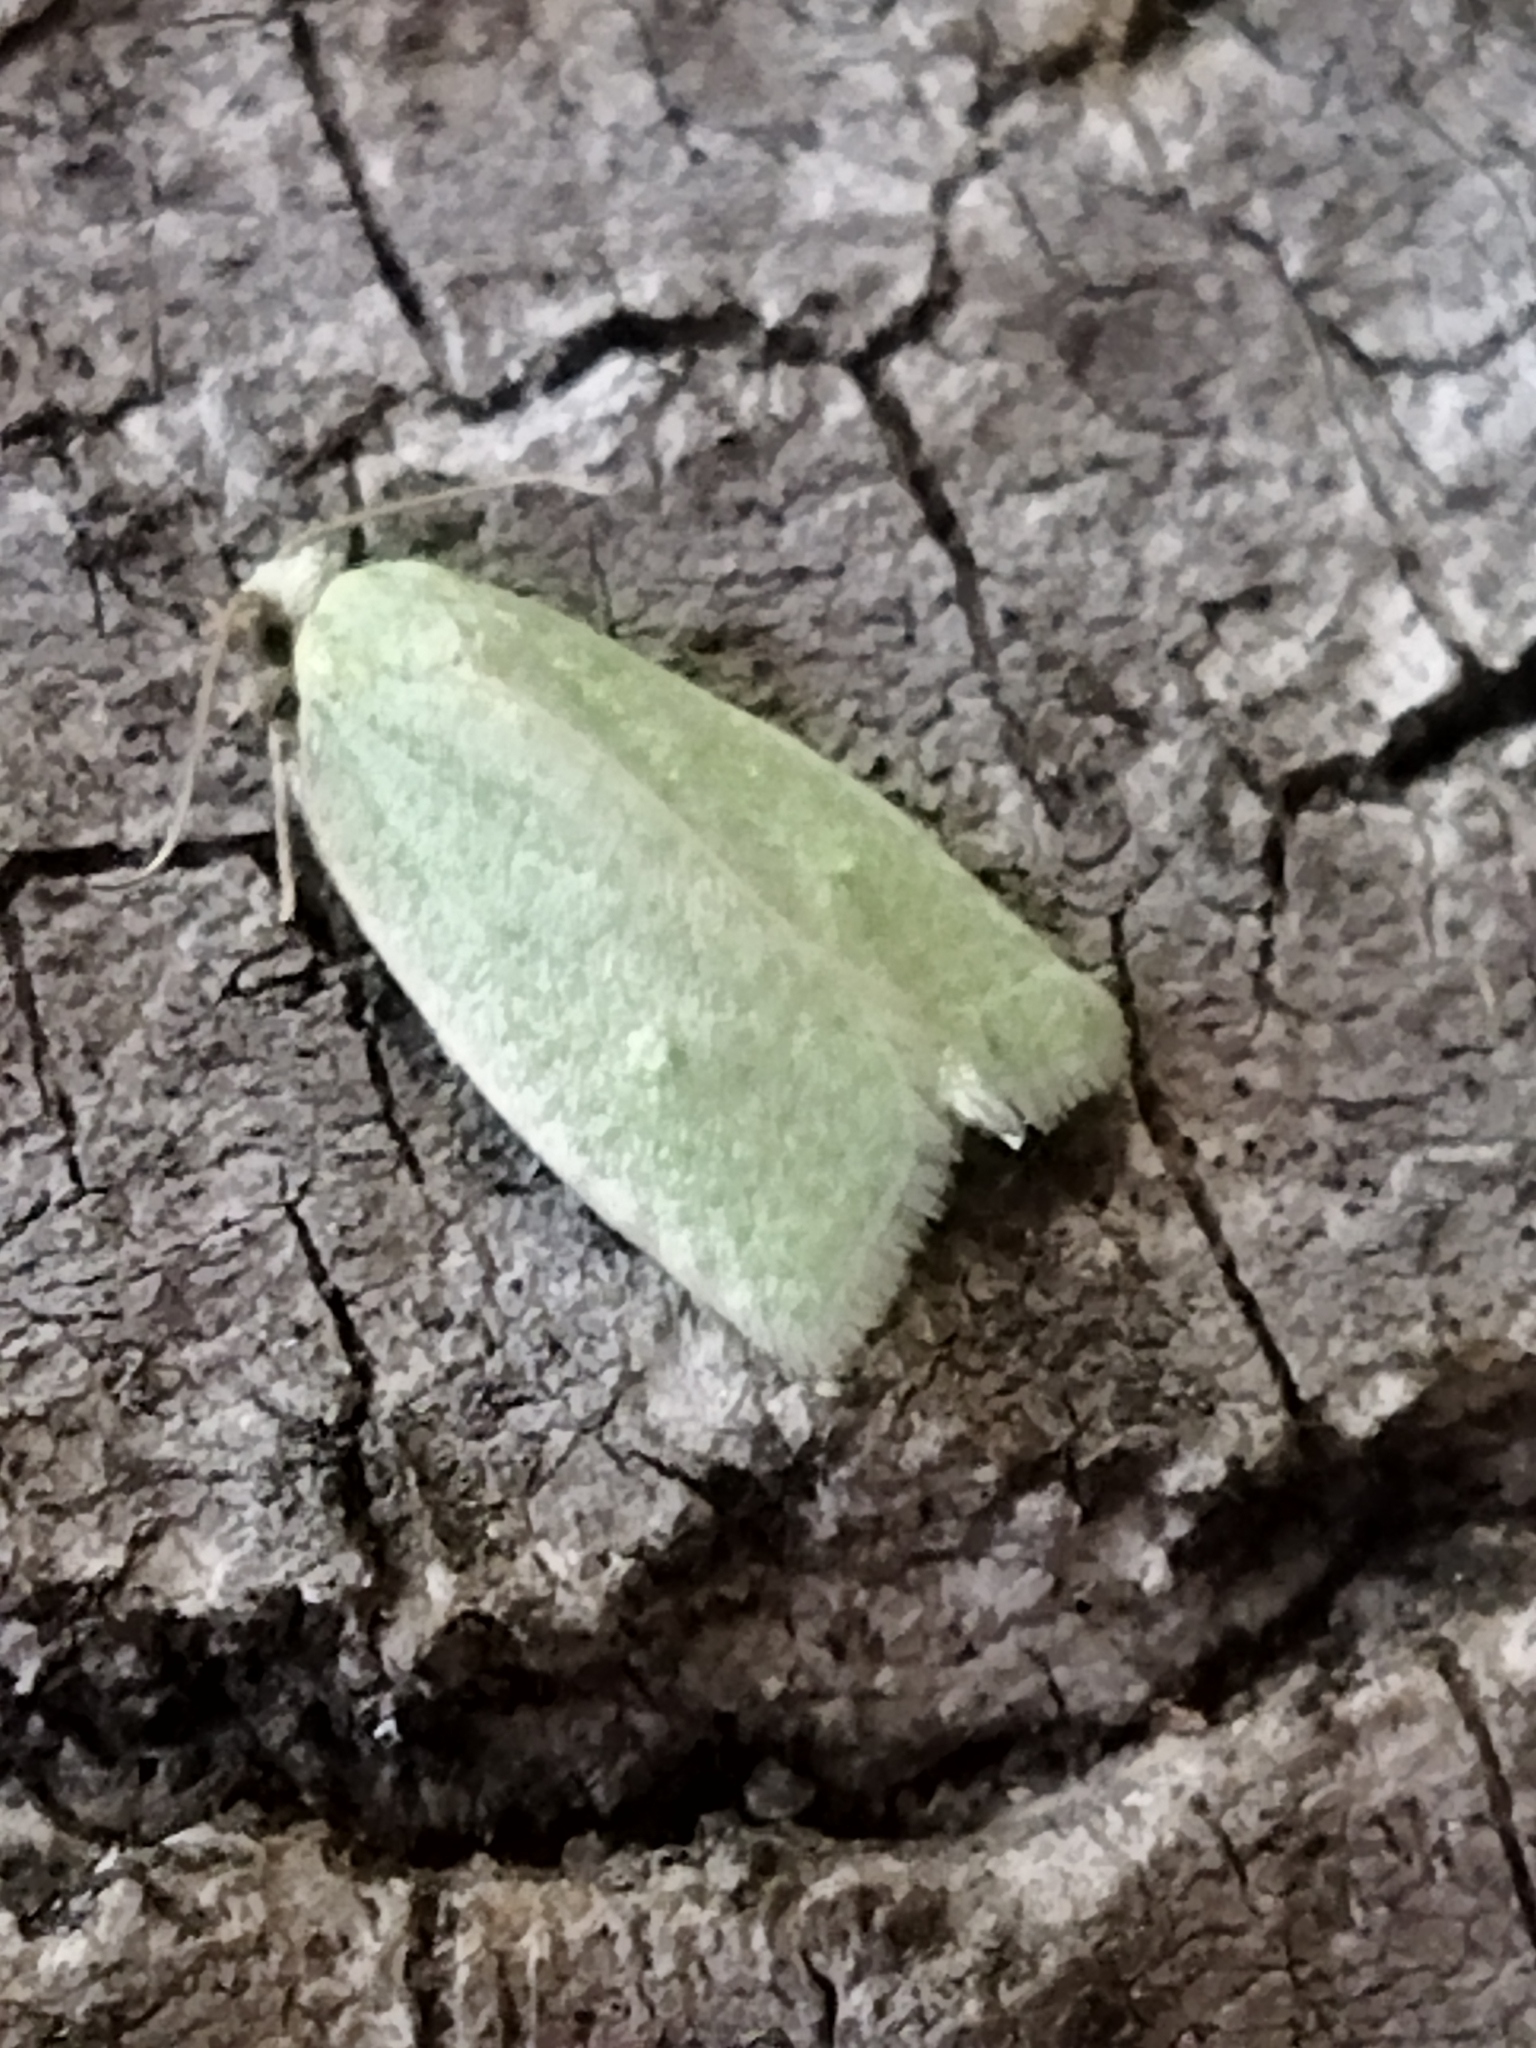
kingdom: Animalia
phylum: Arthropoda
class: Insecta
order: Lepidoptera
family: Tortricidae
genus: Tortrix
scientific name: Tortrix viridana
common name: Green oak tortrix
